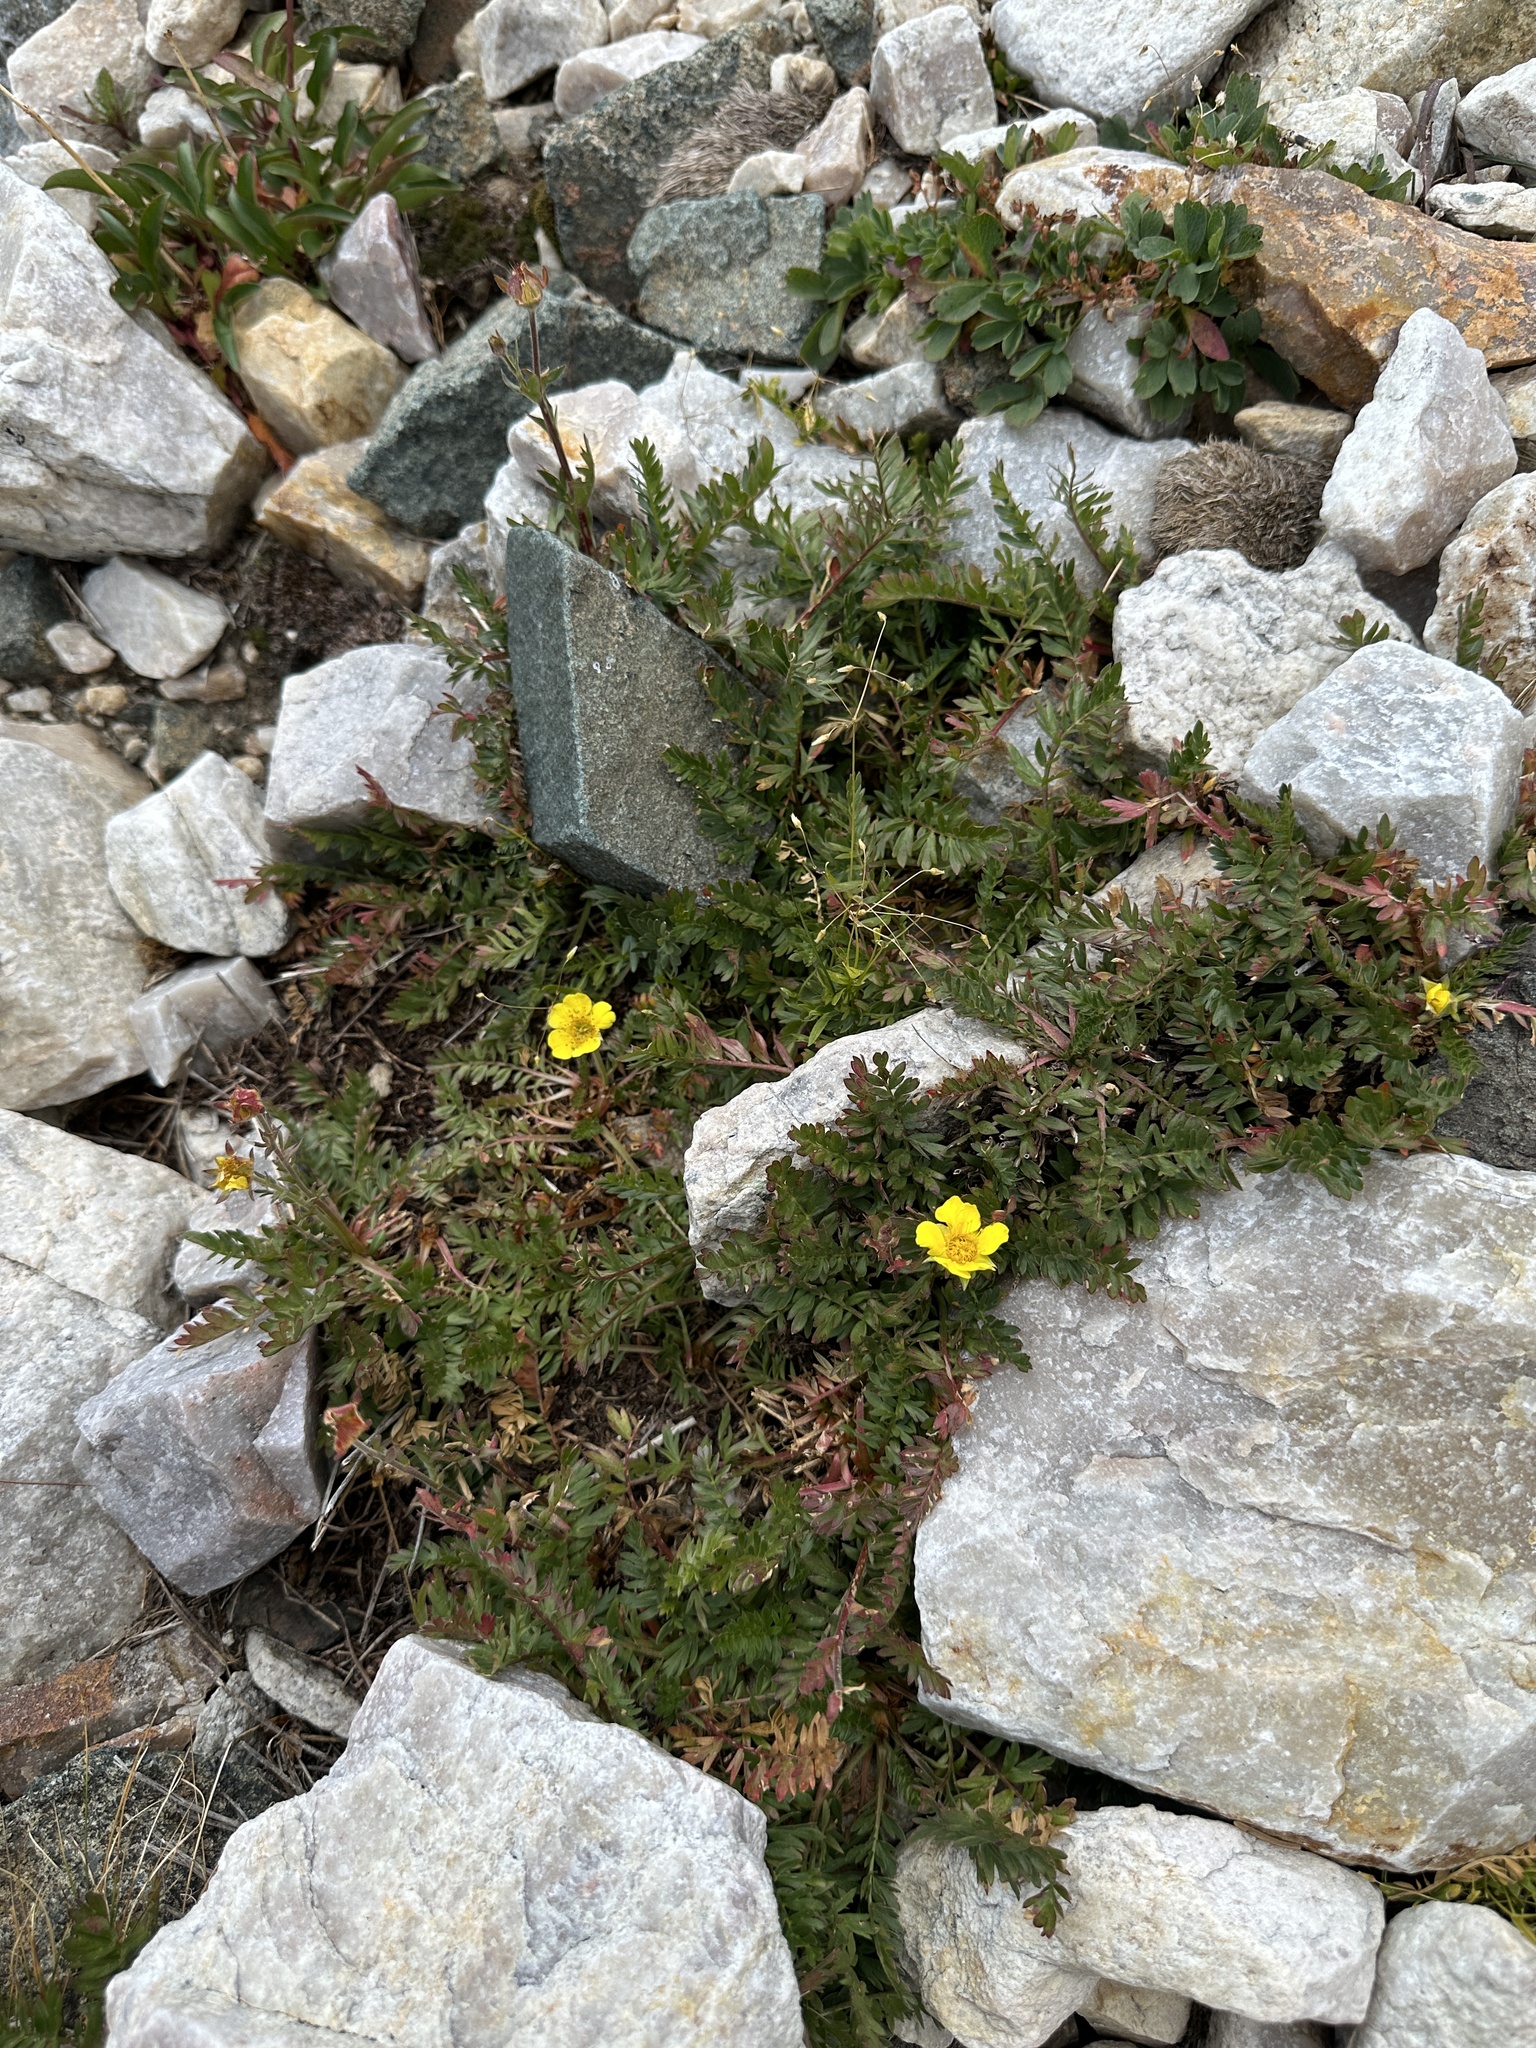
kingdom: Plantae
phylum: Tracheophyta
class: Magnoliopsida
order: Rosales
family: Rosaceae
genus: Geum
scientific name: Geum rossii
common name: Alpine avens
